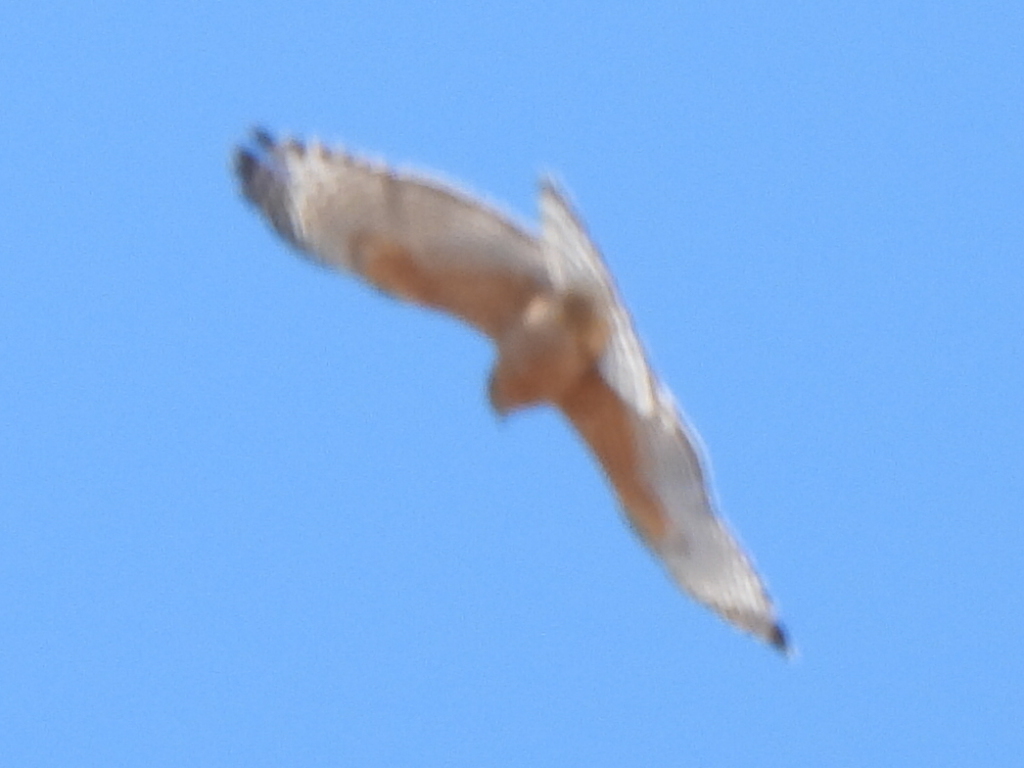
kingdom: Animalia
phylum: Chordata
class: Aves
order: Accipitriformes
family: Accipitridae
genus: Buteo
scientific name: Buteo lineatus
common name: Red-shouldered hawk
